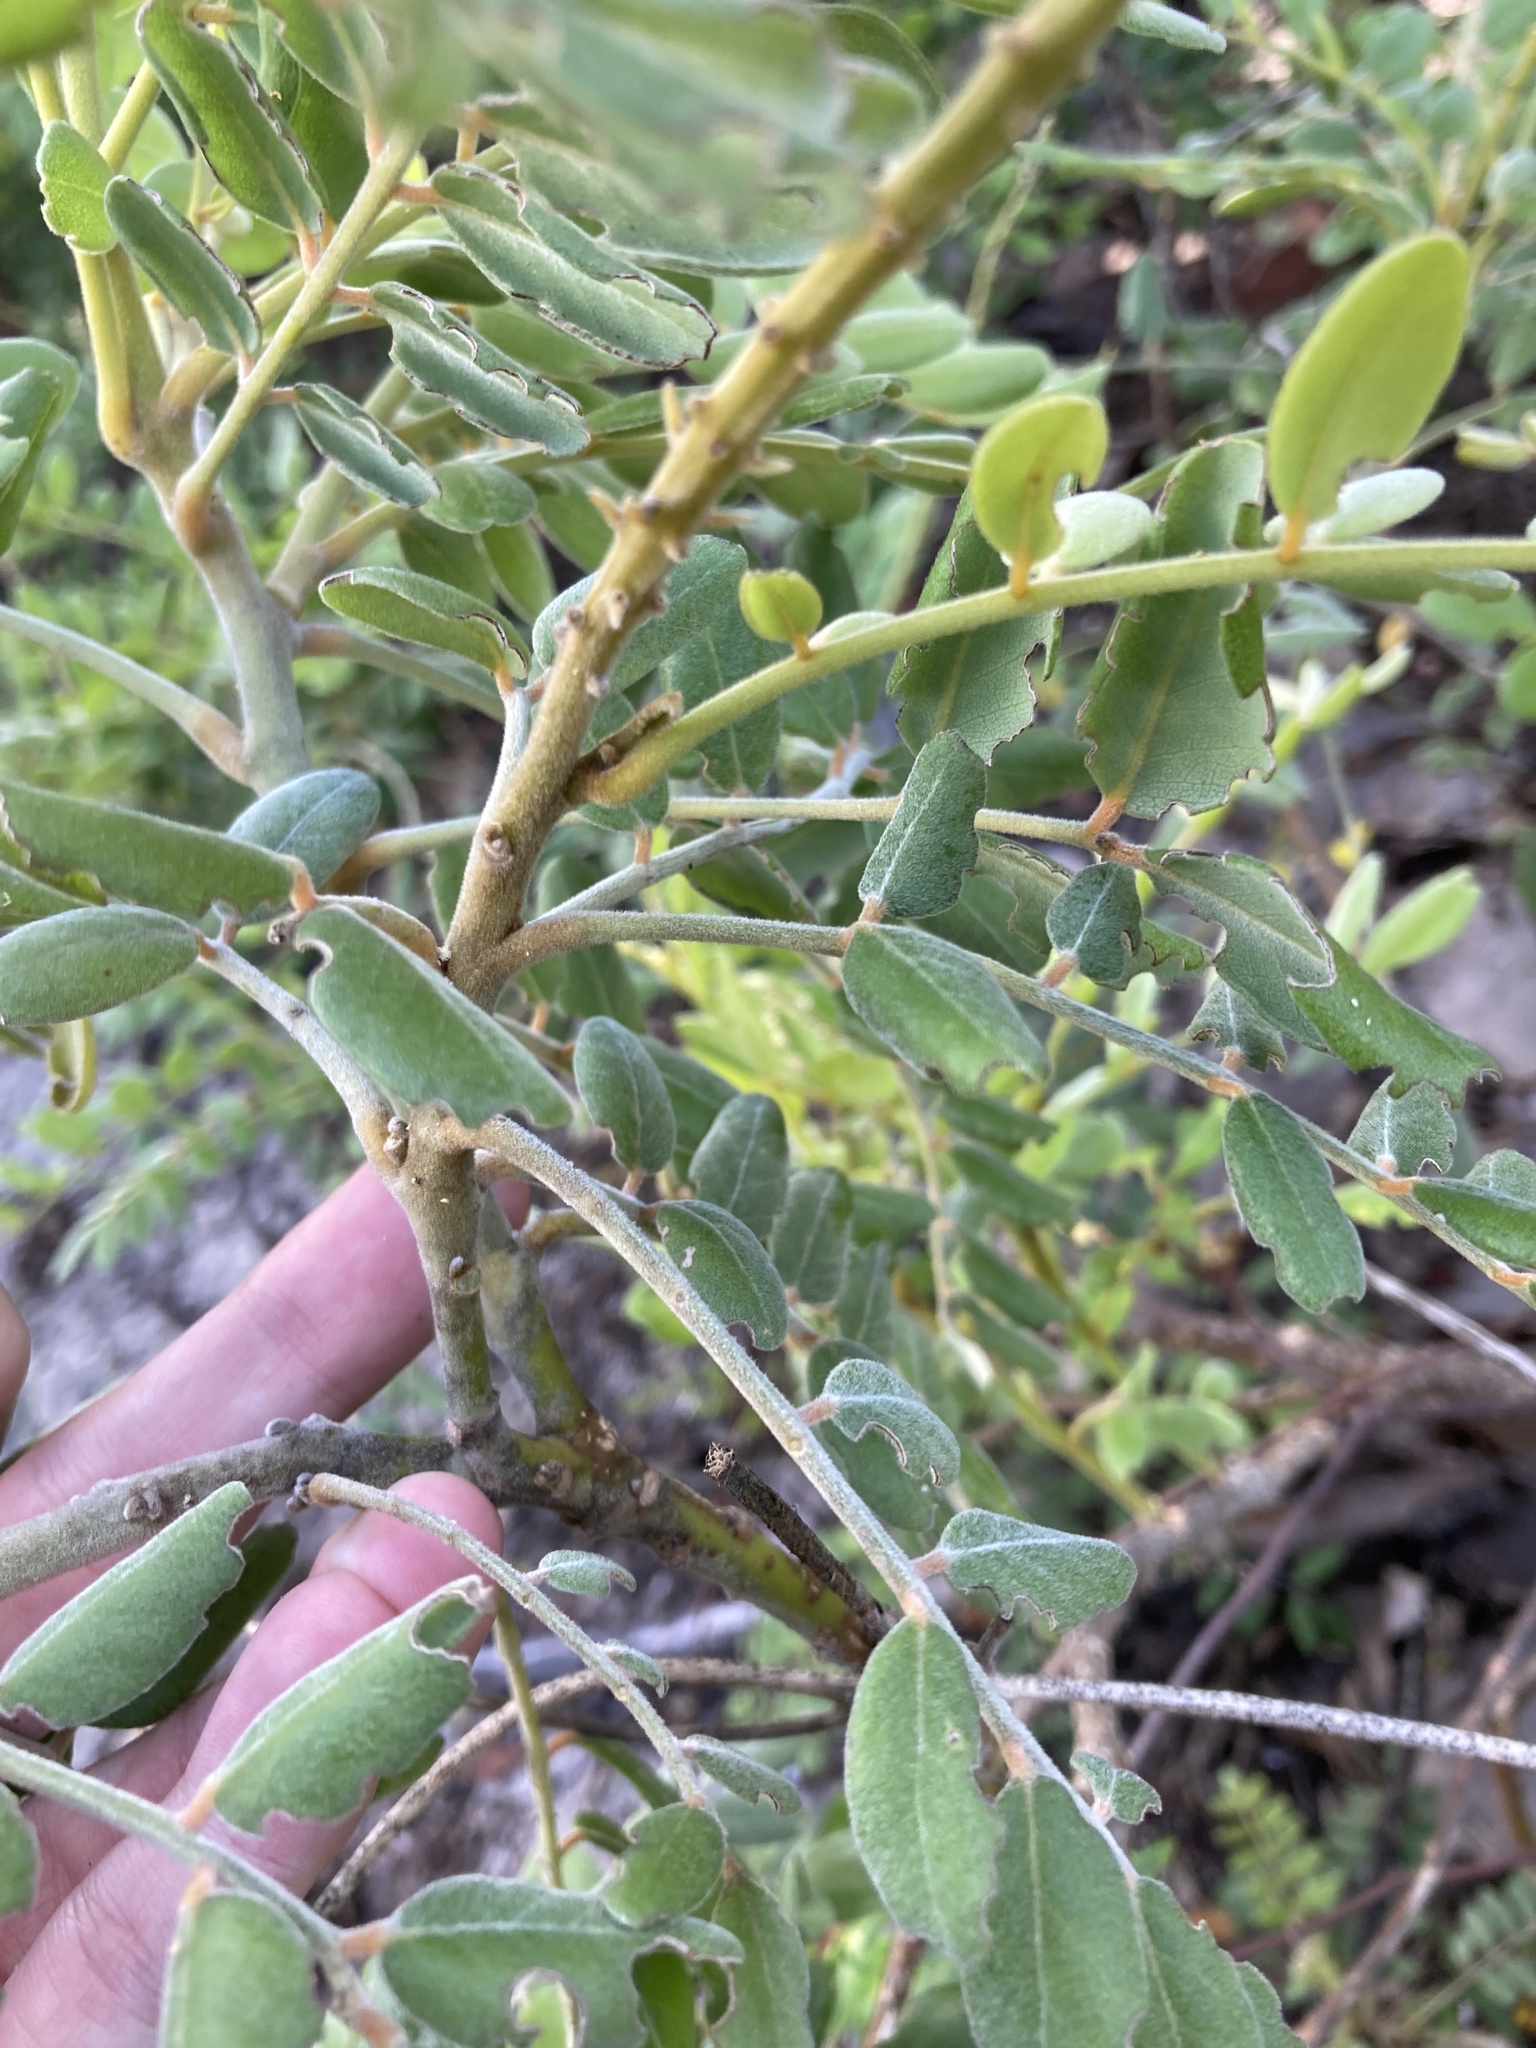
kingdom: Plantae
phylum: Tracheophyta
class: Magnoliopsida
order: Fabales
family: Fabaceae
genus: Sophora
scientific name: Sophora tomentosa
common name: Yellow necklacepod
